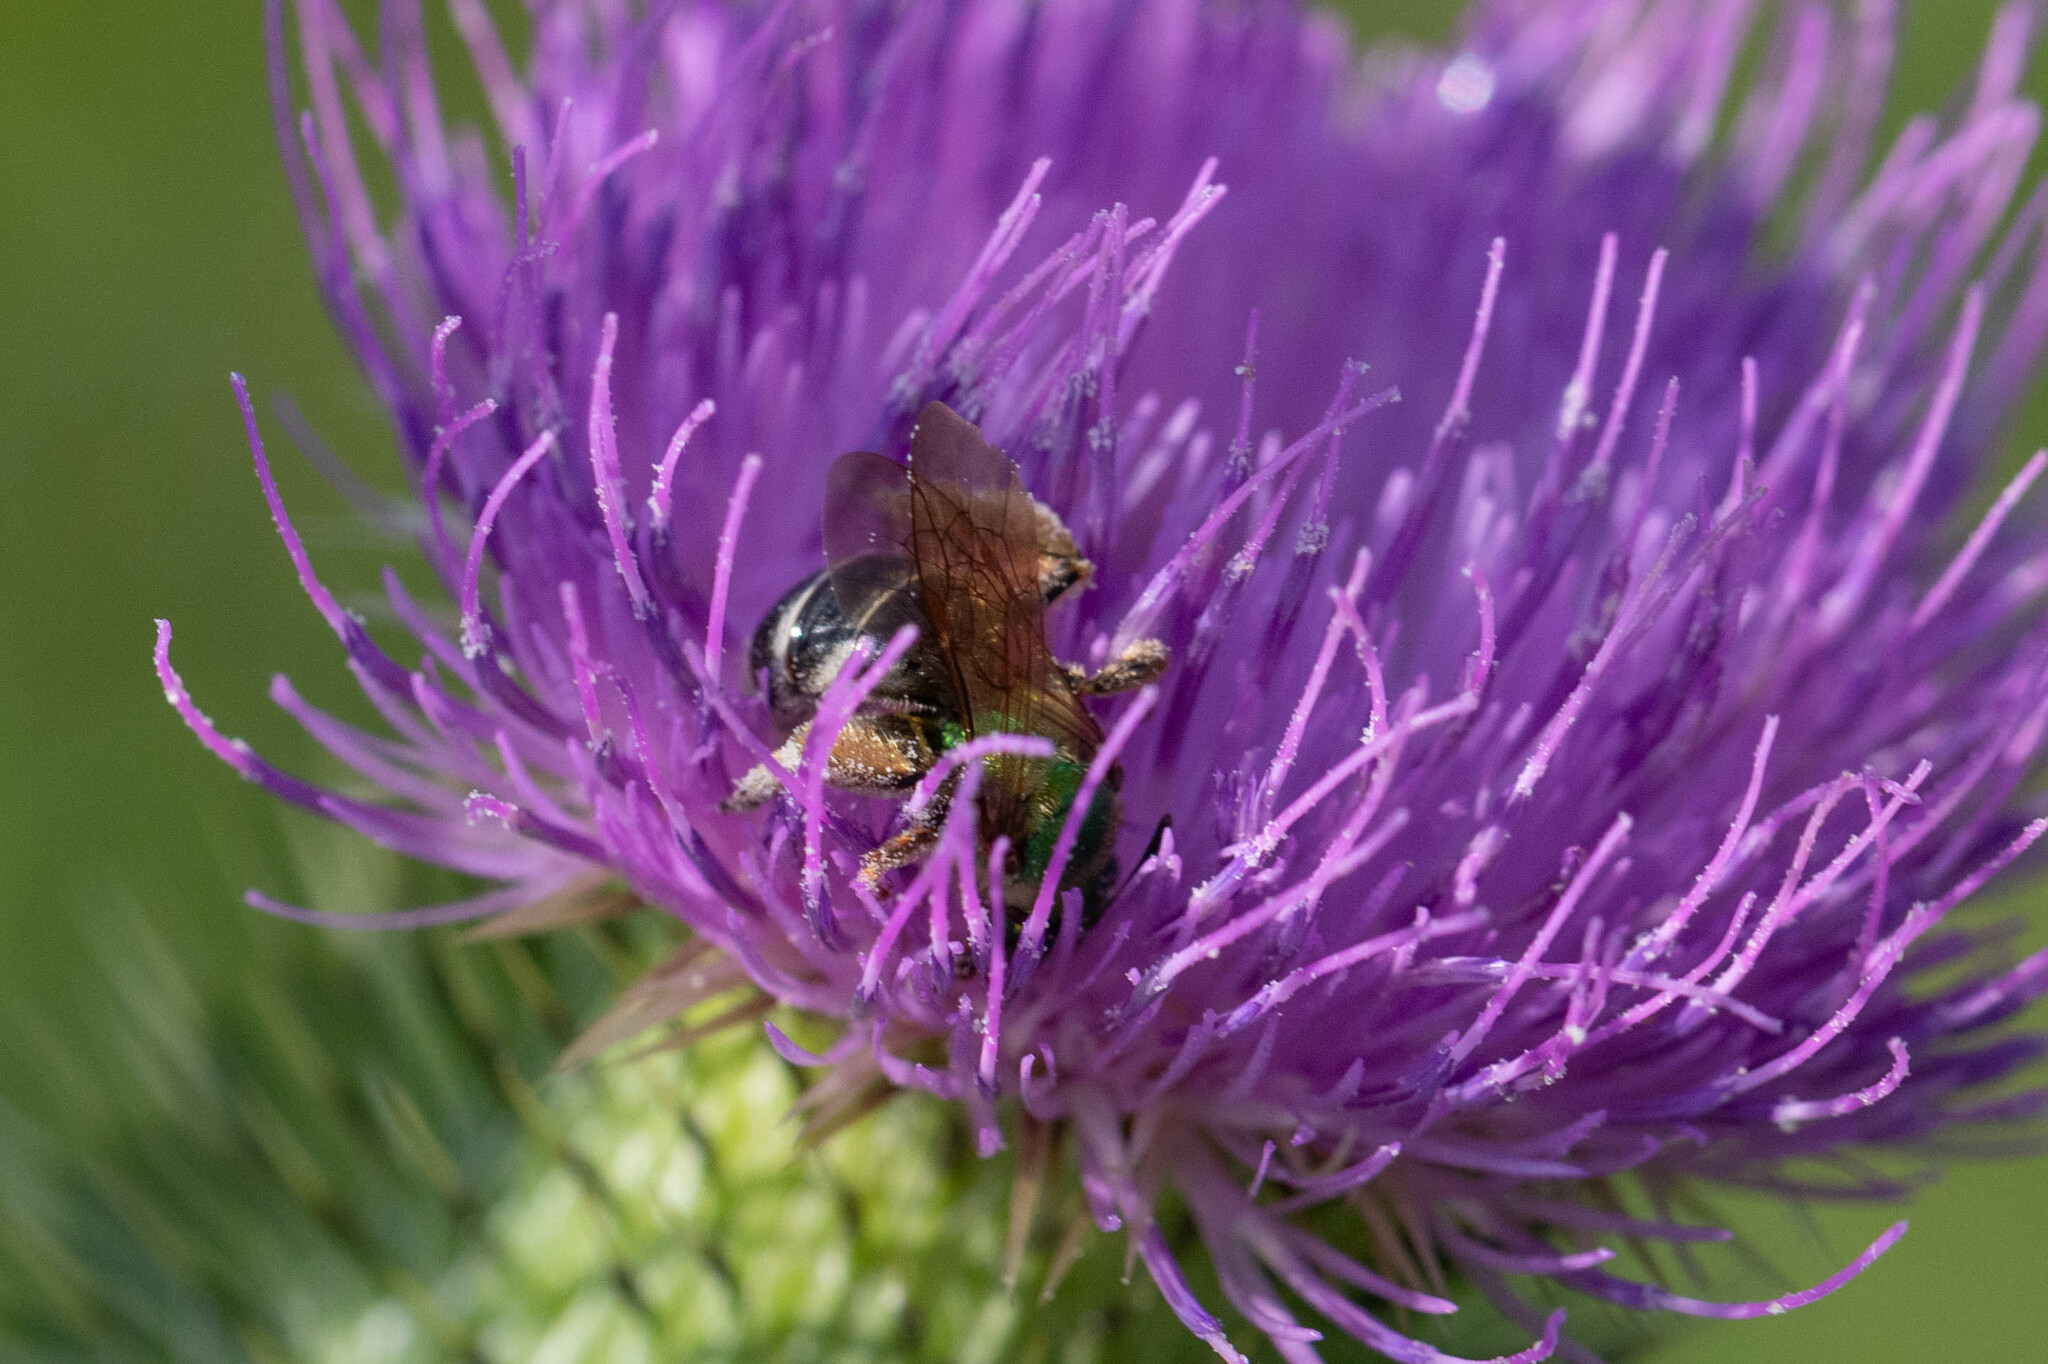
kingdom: Animalia
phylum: Arthropoda
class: Insecta
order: Hymenoptera
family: Halictidae
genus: Agapostemon
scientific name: Agapostemon virescens
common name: Bicolored striped sweat bee
